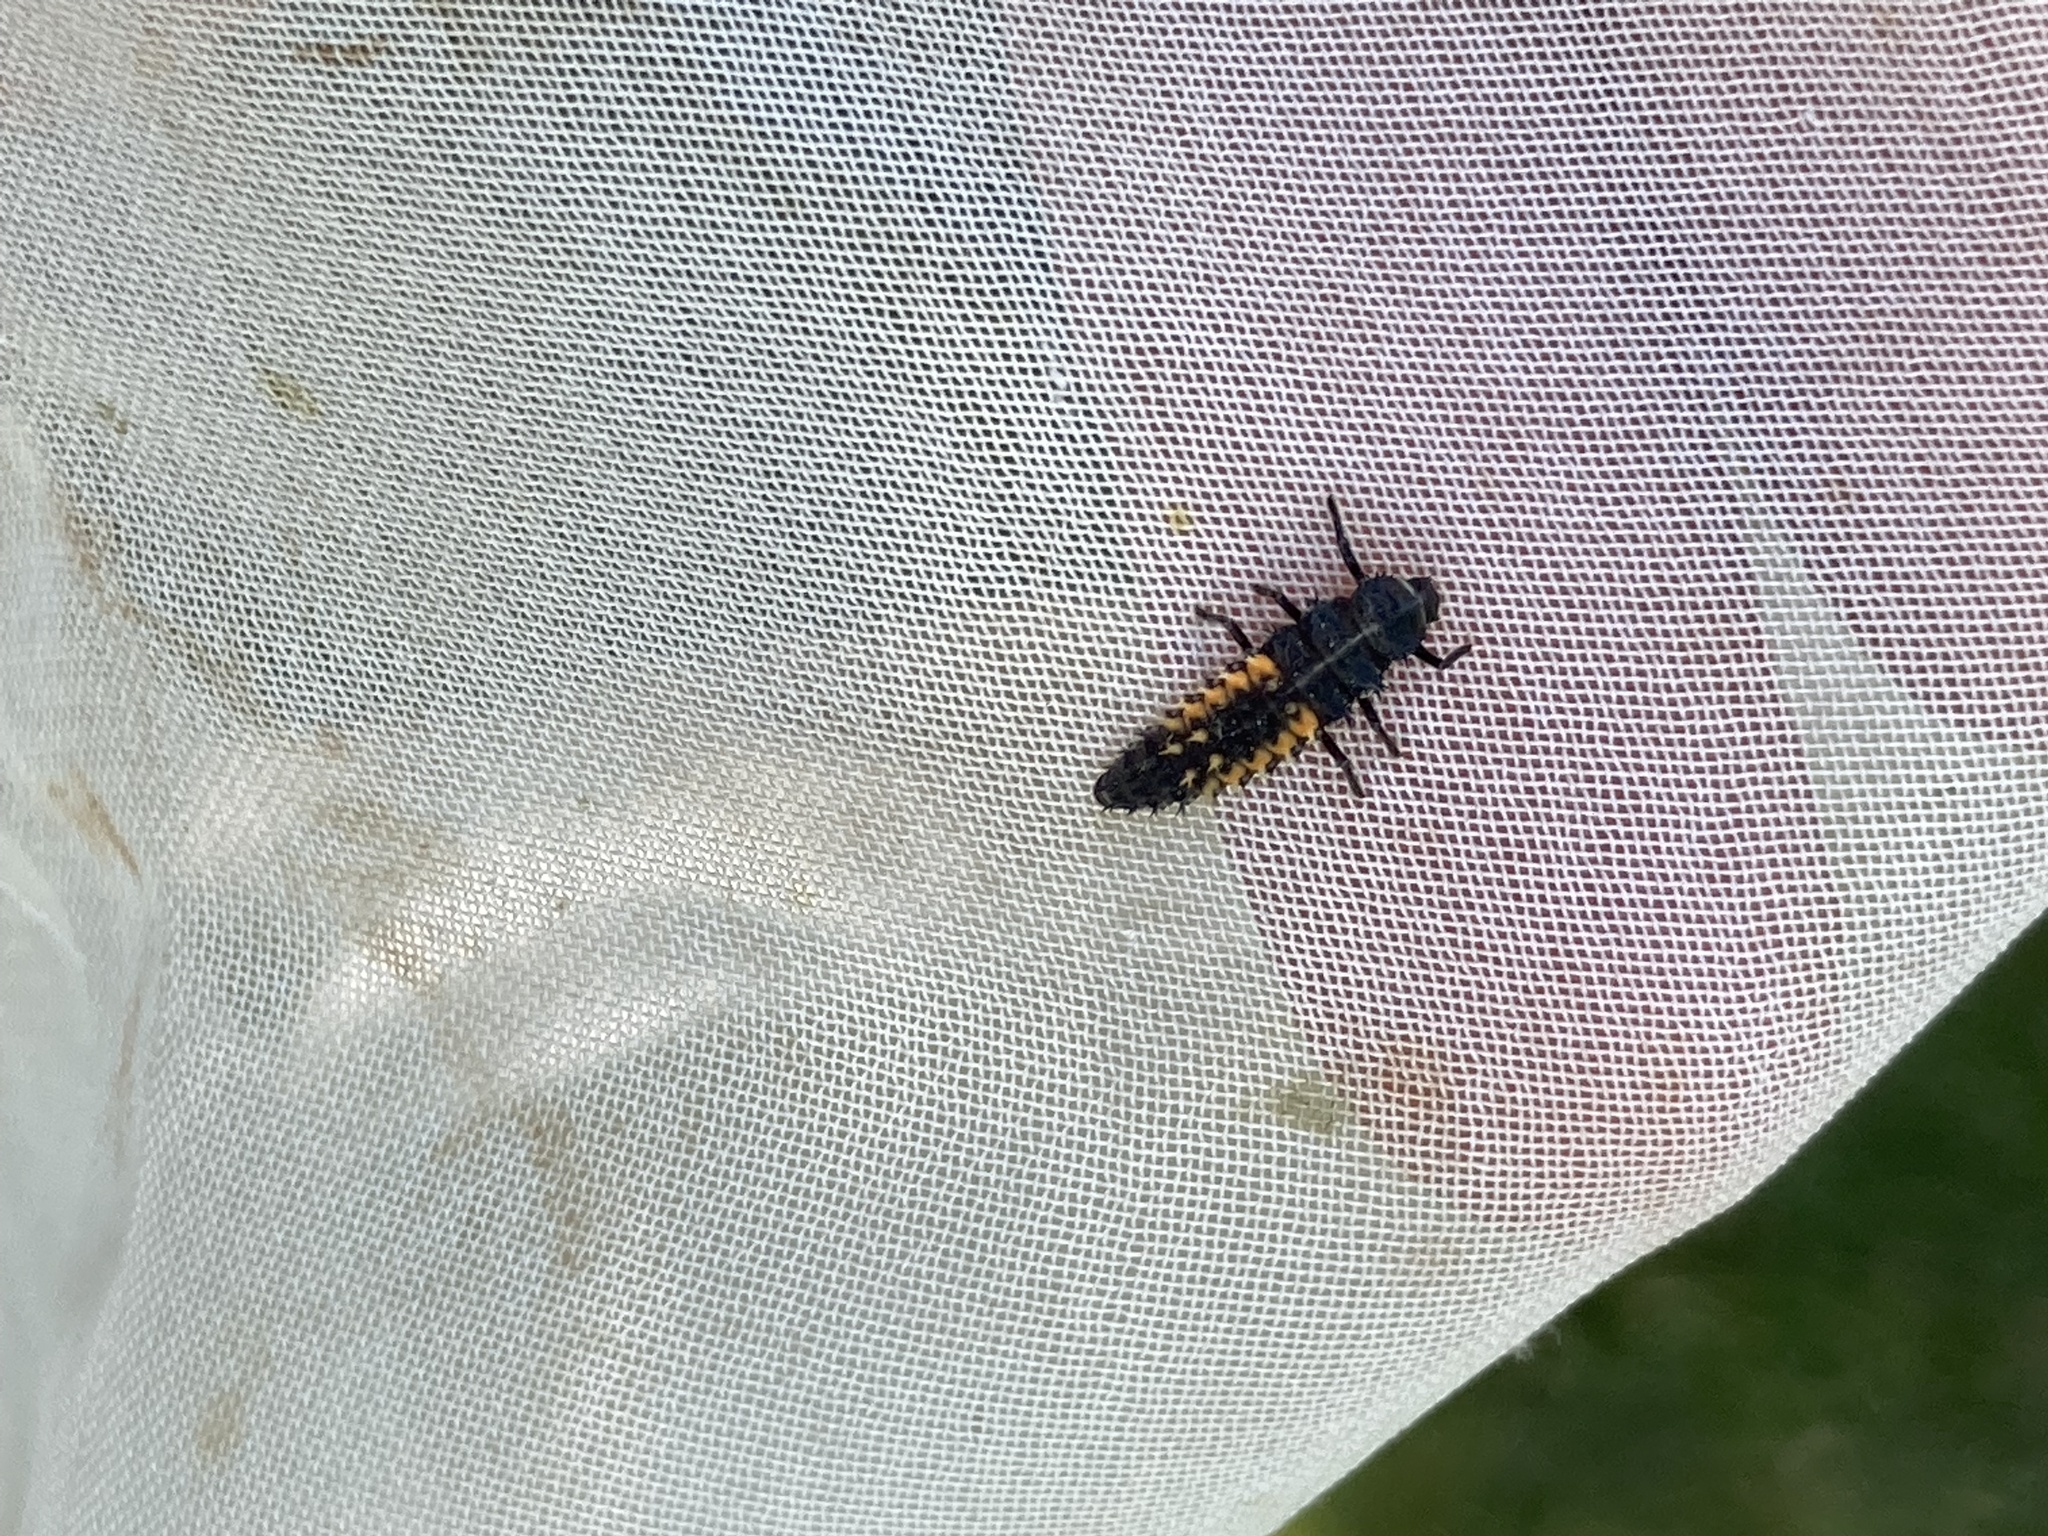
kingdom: Animalia
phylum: Arthropoda
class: Insecta
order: Coleoptera
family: Coccinellidae
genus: Harmonia
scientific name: Harmonia axyridis
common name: Harlequin ladybird
